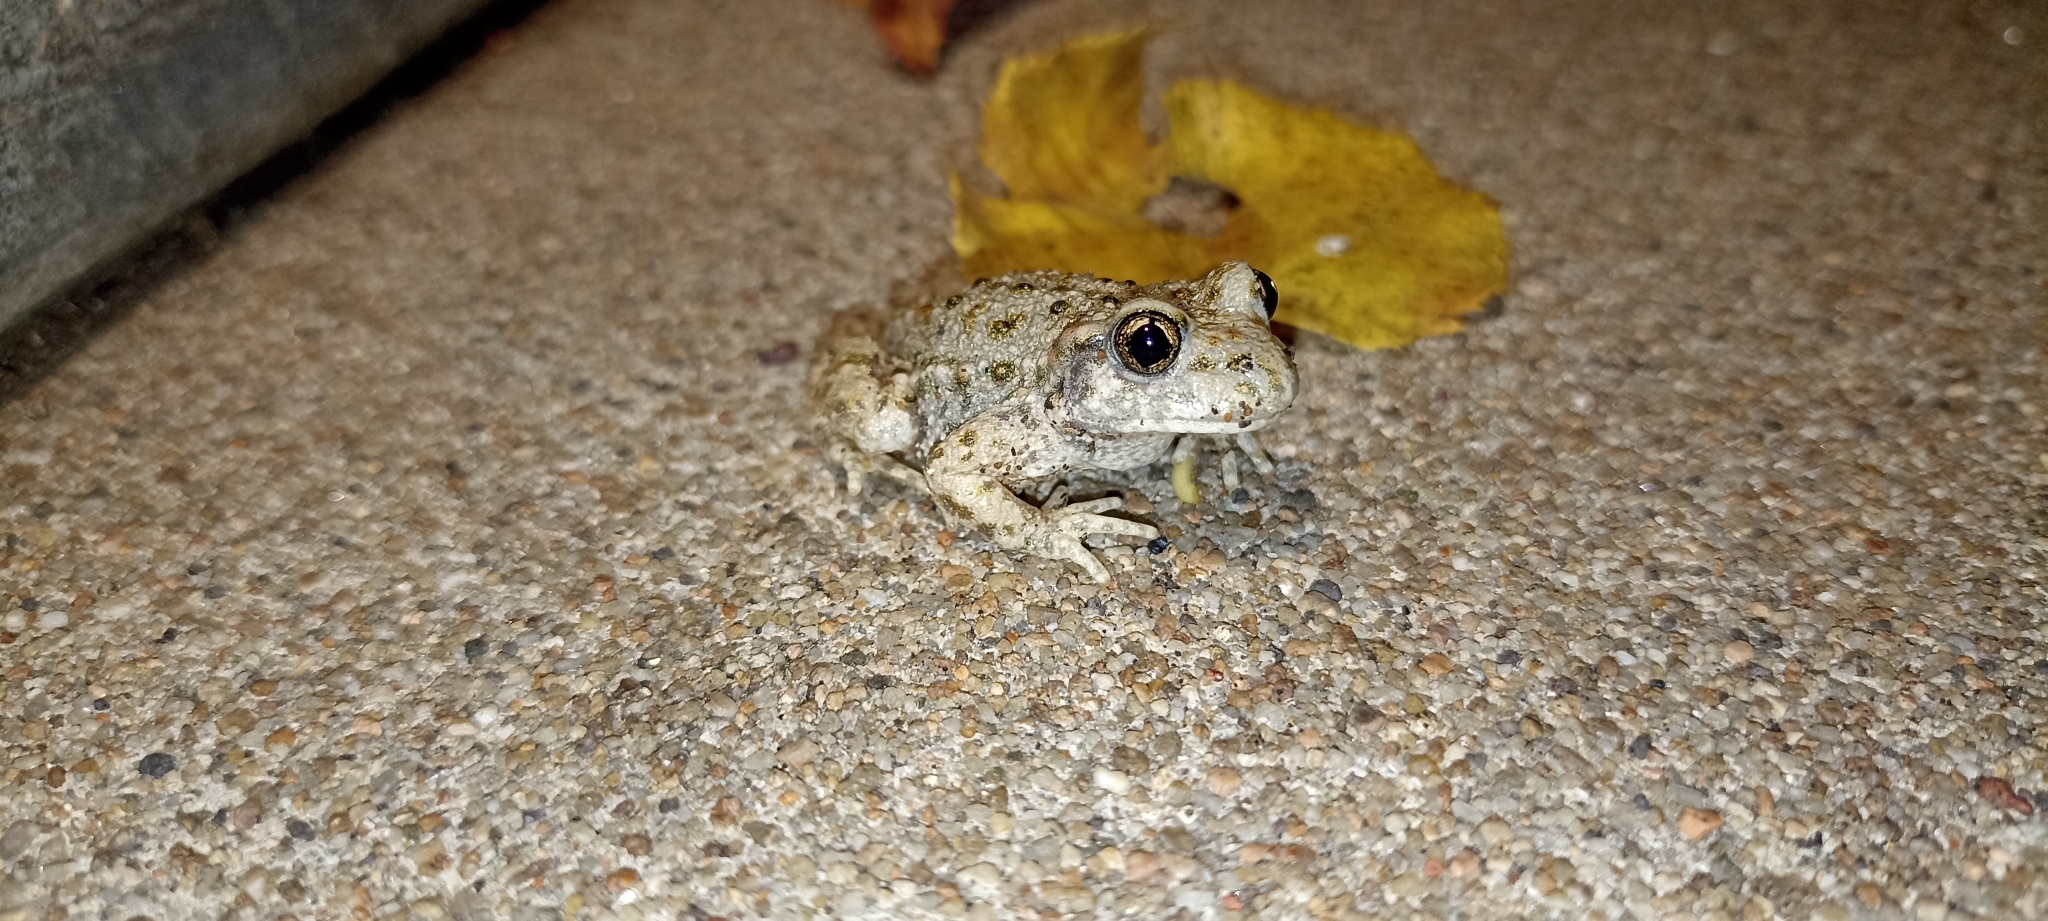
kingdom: Animalia
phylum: Chordata
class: Amphibia
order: Anura
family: Alytidae
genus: Alytes
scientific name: Alytes obstetricans
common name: Midwife toad
